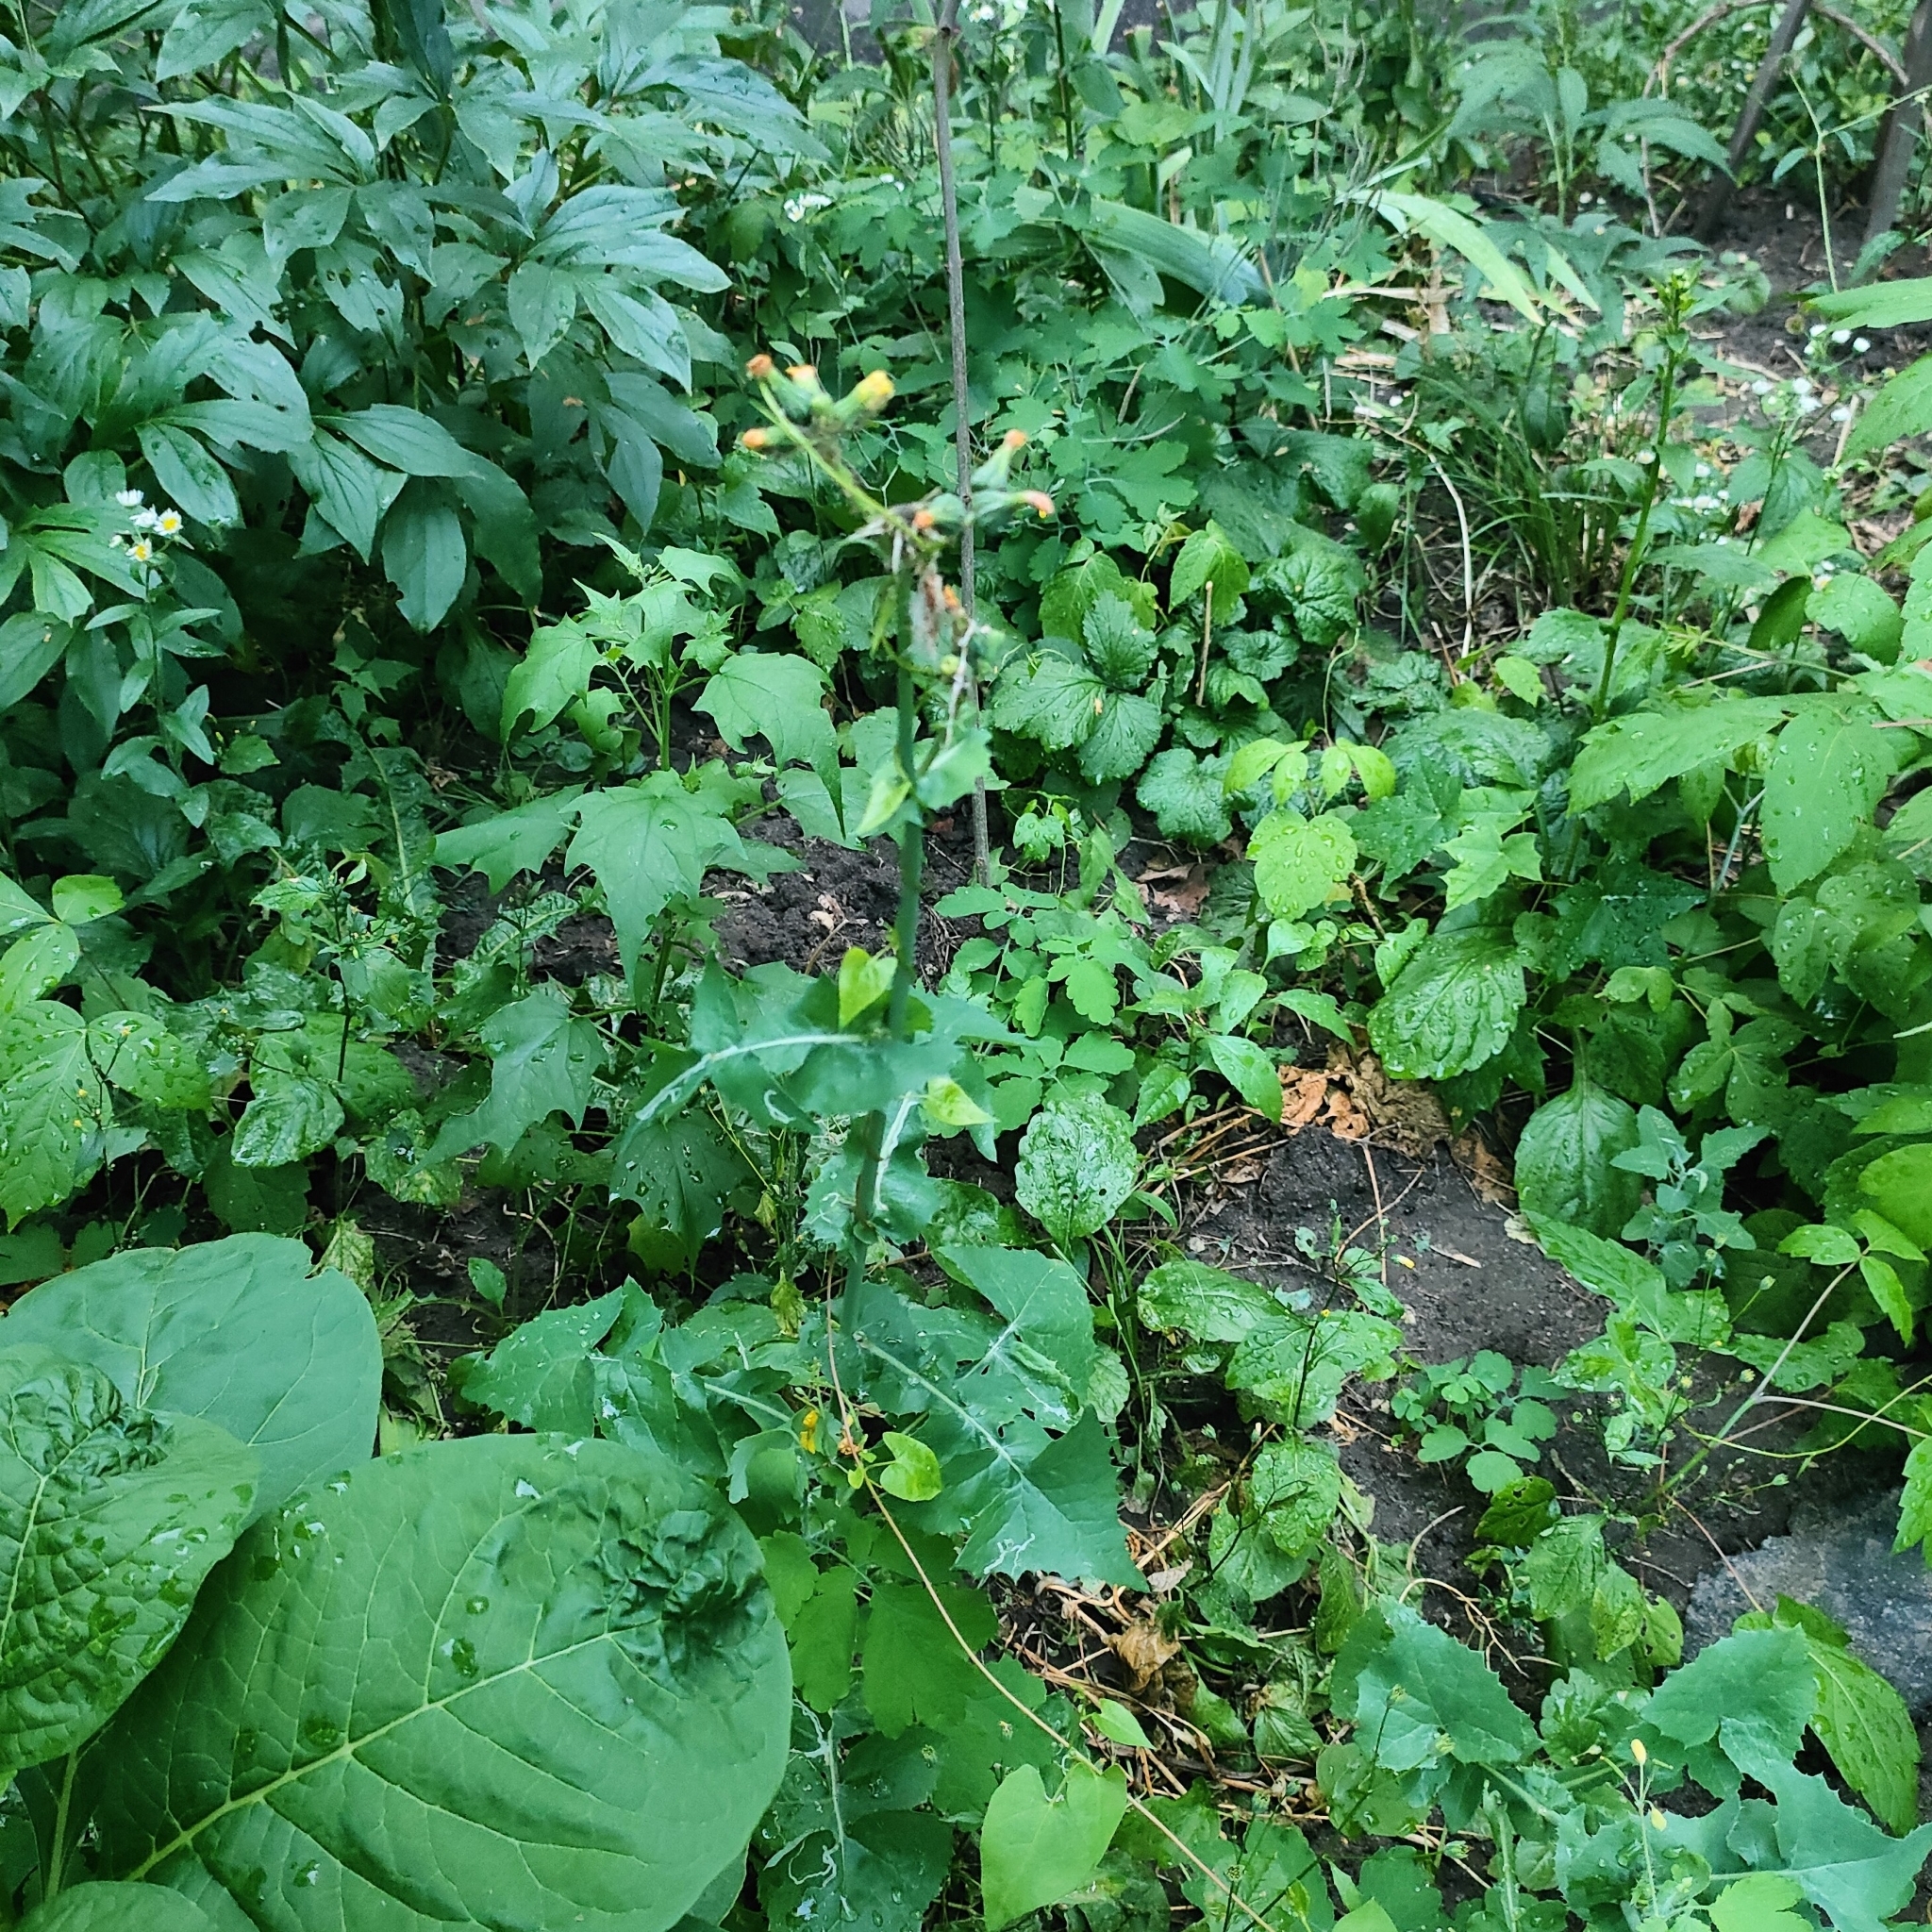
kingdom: Plantae
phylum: Tracheophyta
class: Magnoliopsida
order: Asterales
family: Asteraceae
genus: Sonchus
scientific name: Sonchus oleraceus
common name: Common sowthistle
